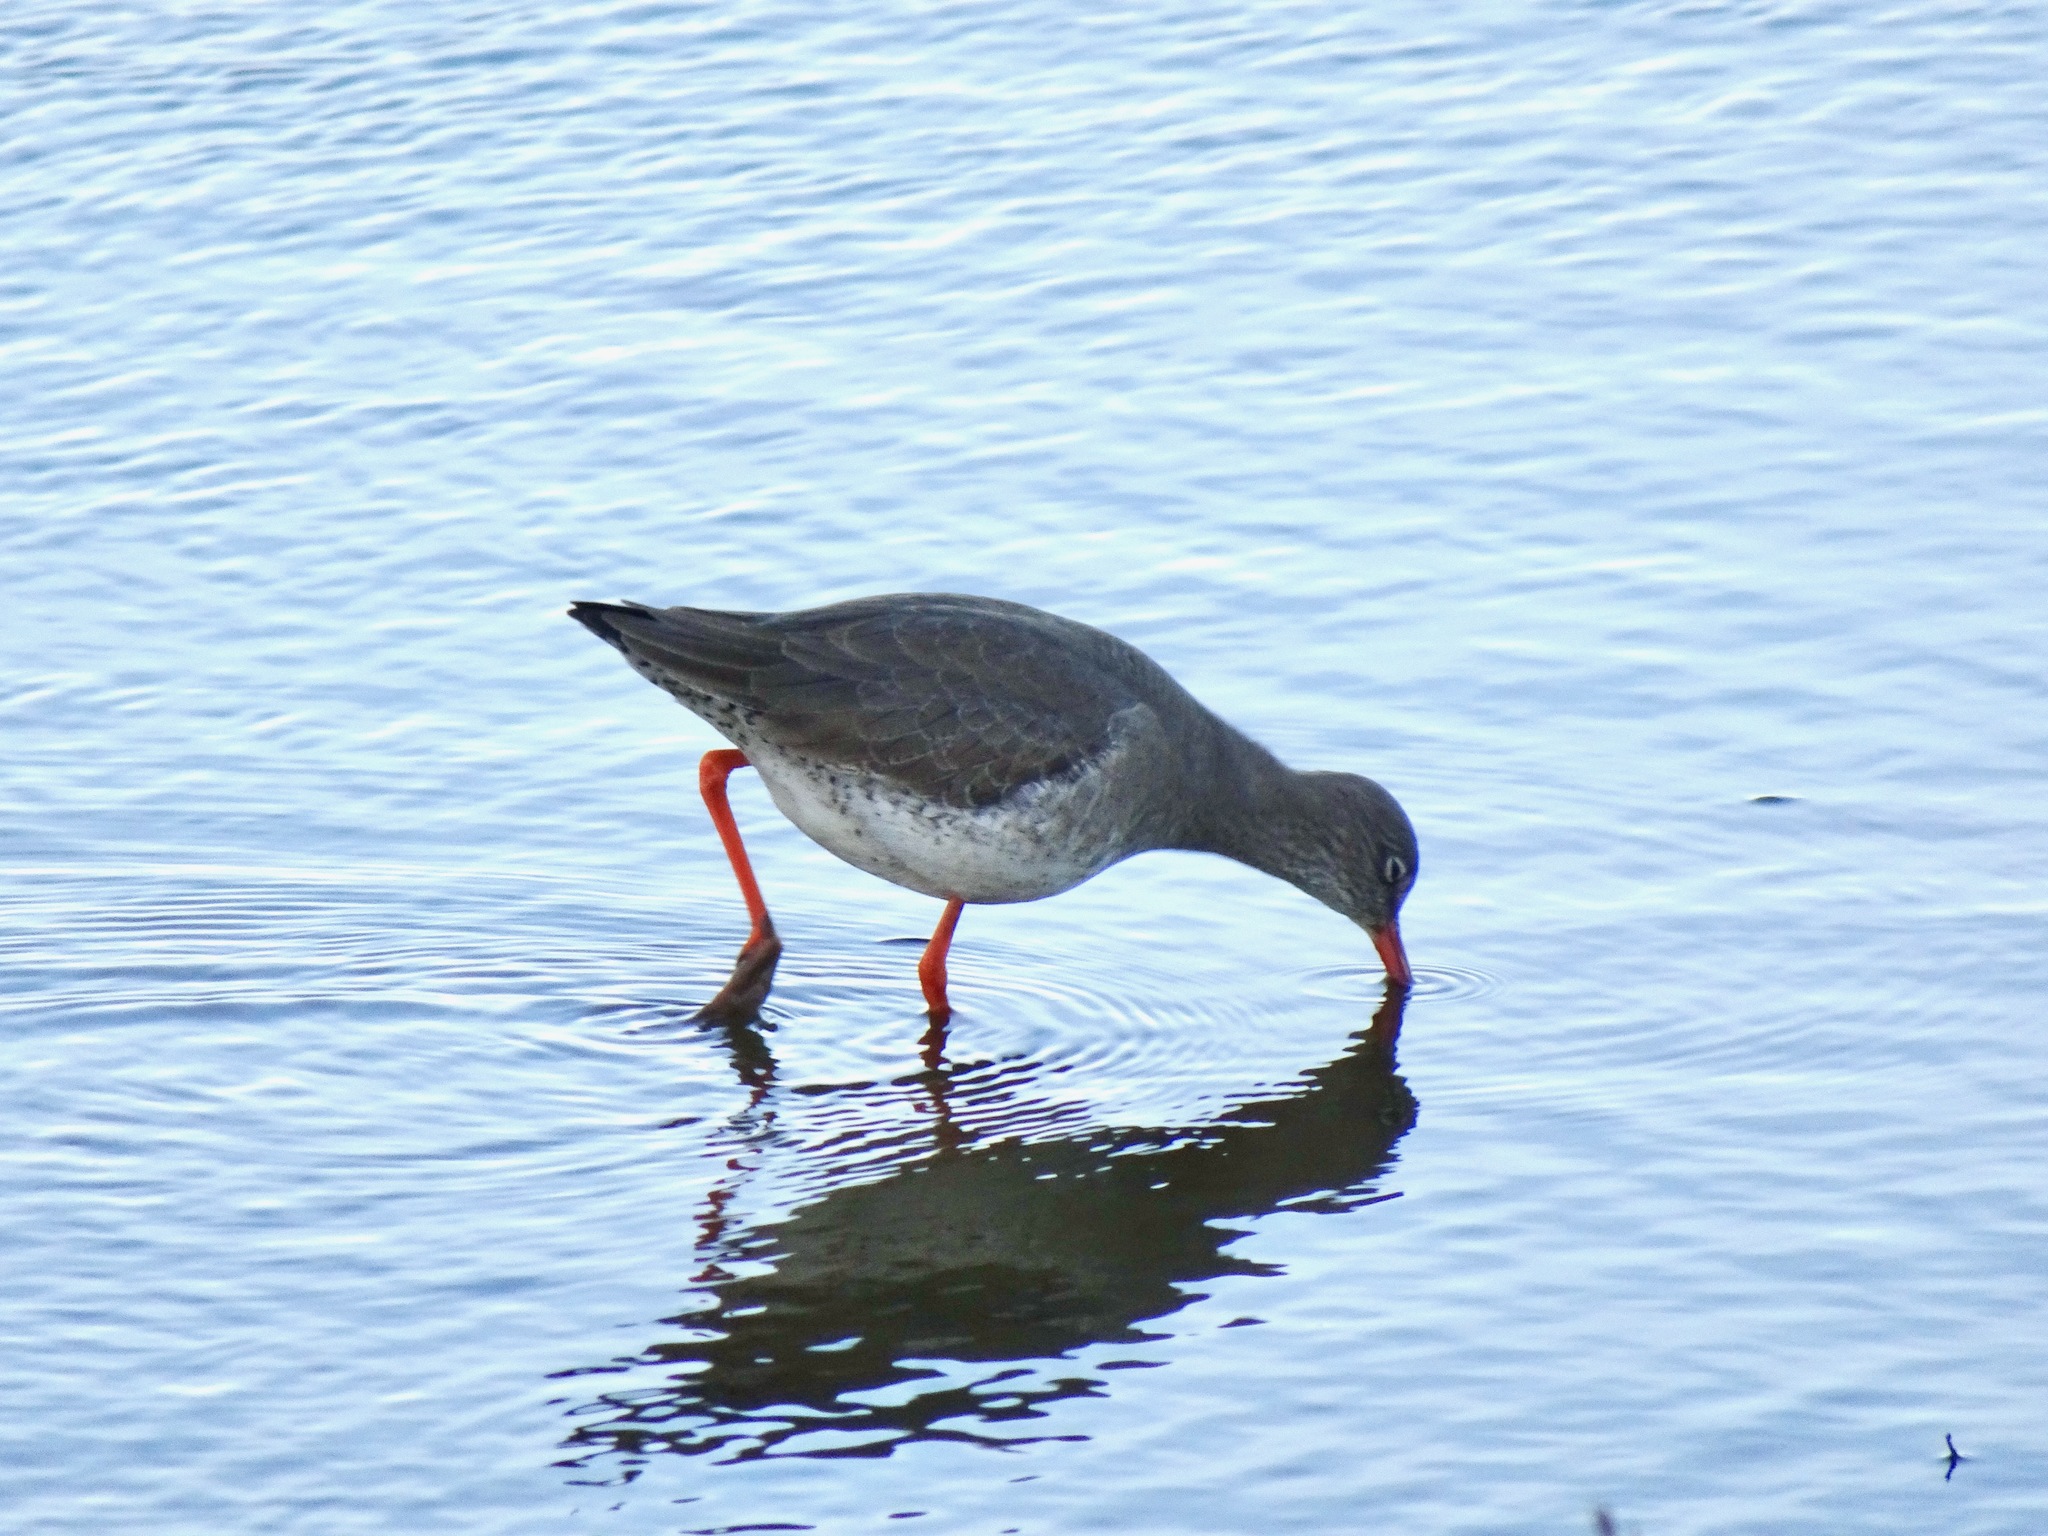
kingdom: Animalia
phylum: Chordata
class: Aves
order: Charadriiformes
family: Scolopacidae
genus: Tringa
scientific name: Tringa totanus
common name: Common redshank
